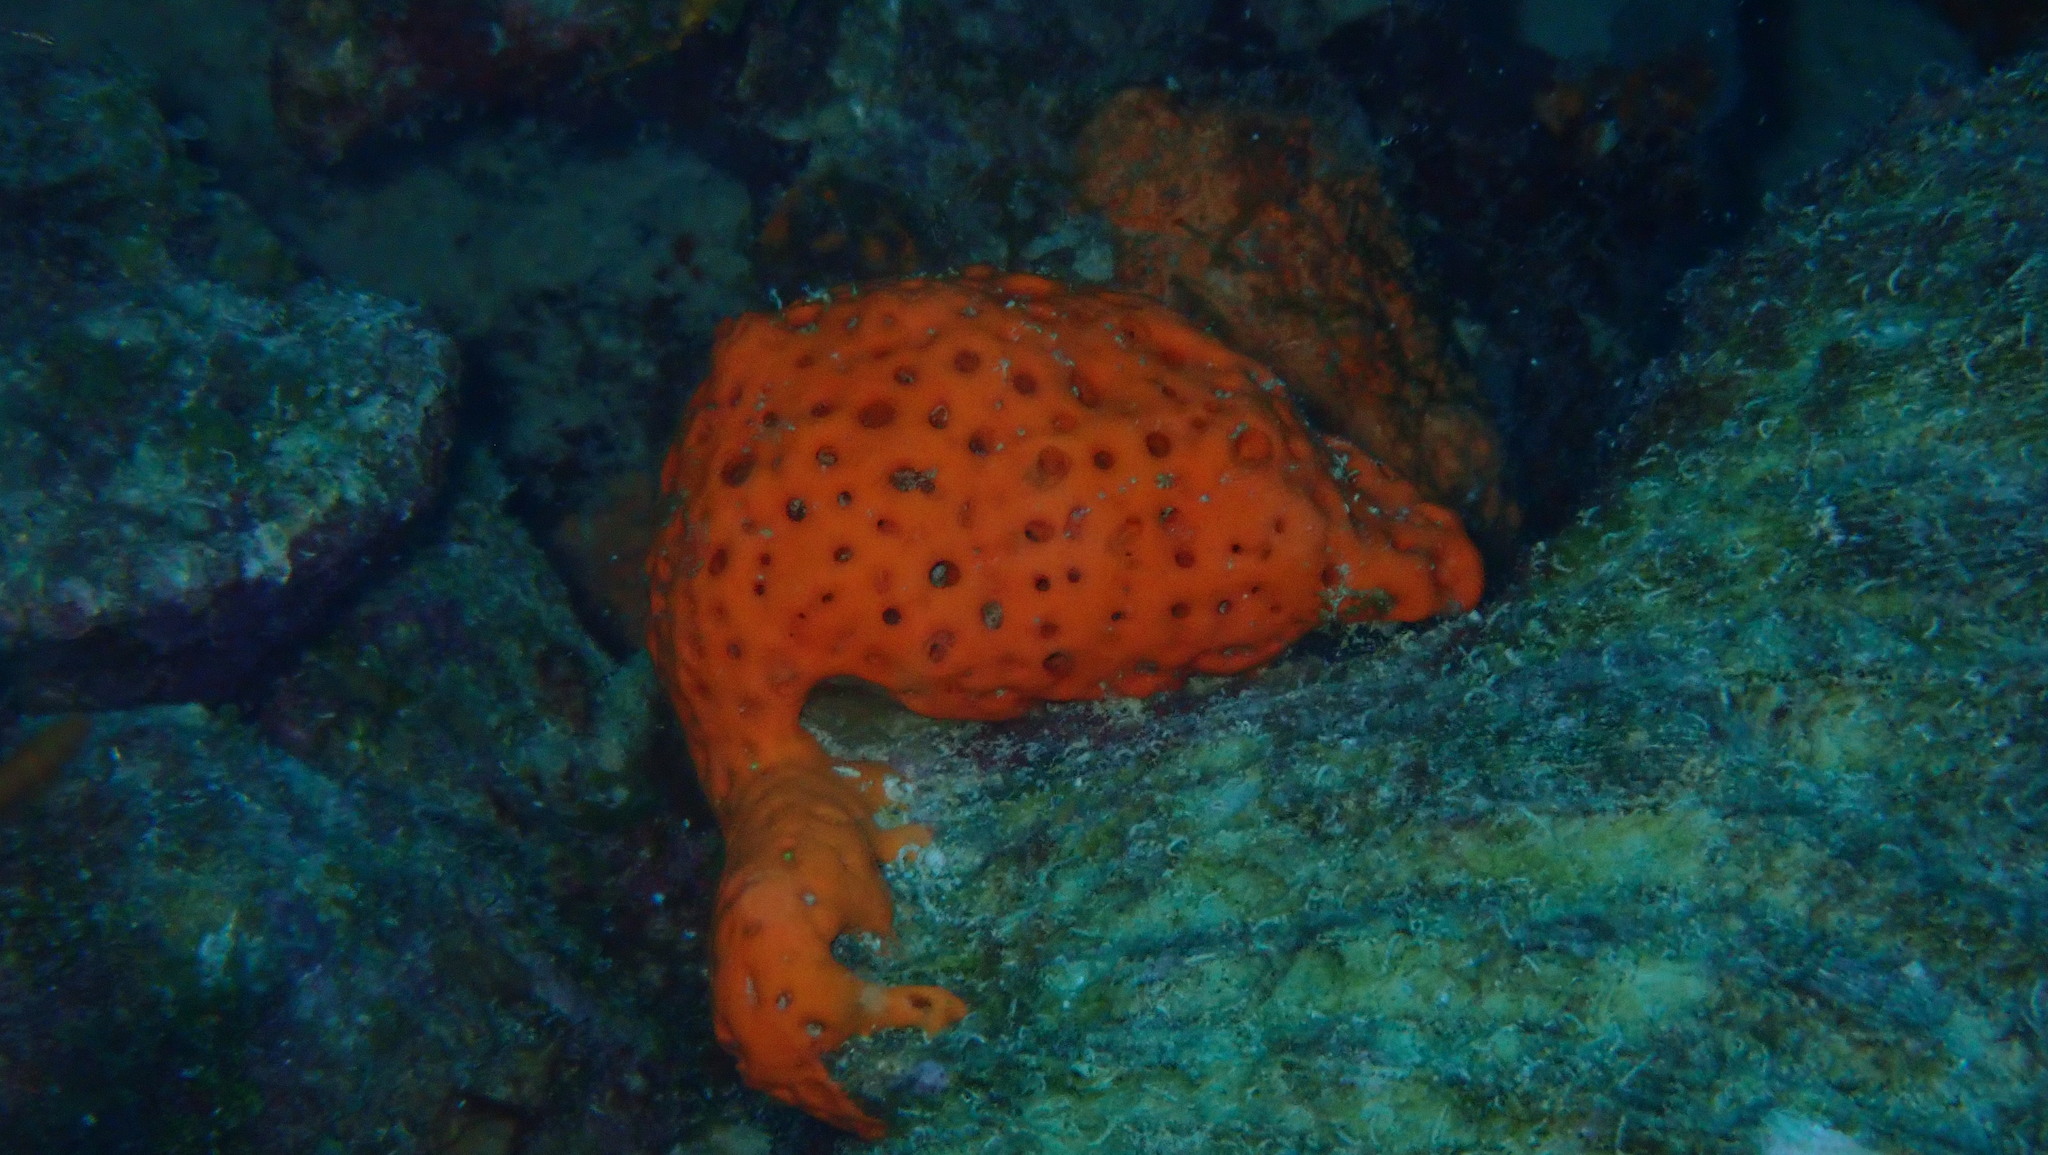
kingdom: Animalia
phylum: Porifera
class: Demospongiae
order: Agelasida
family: Agelasidae
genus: Agelas
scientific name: Agelas sventres
